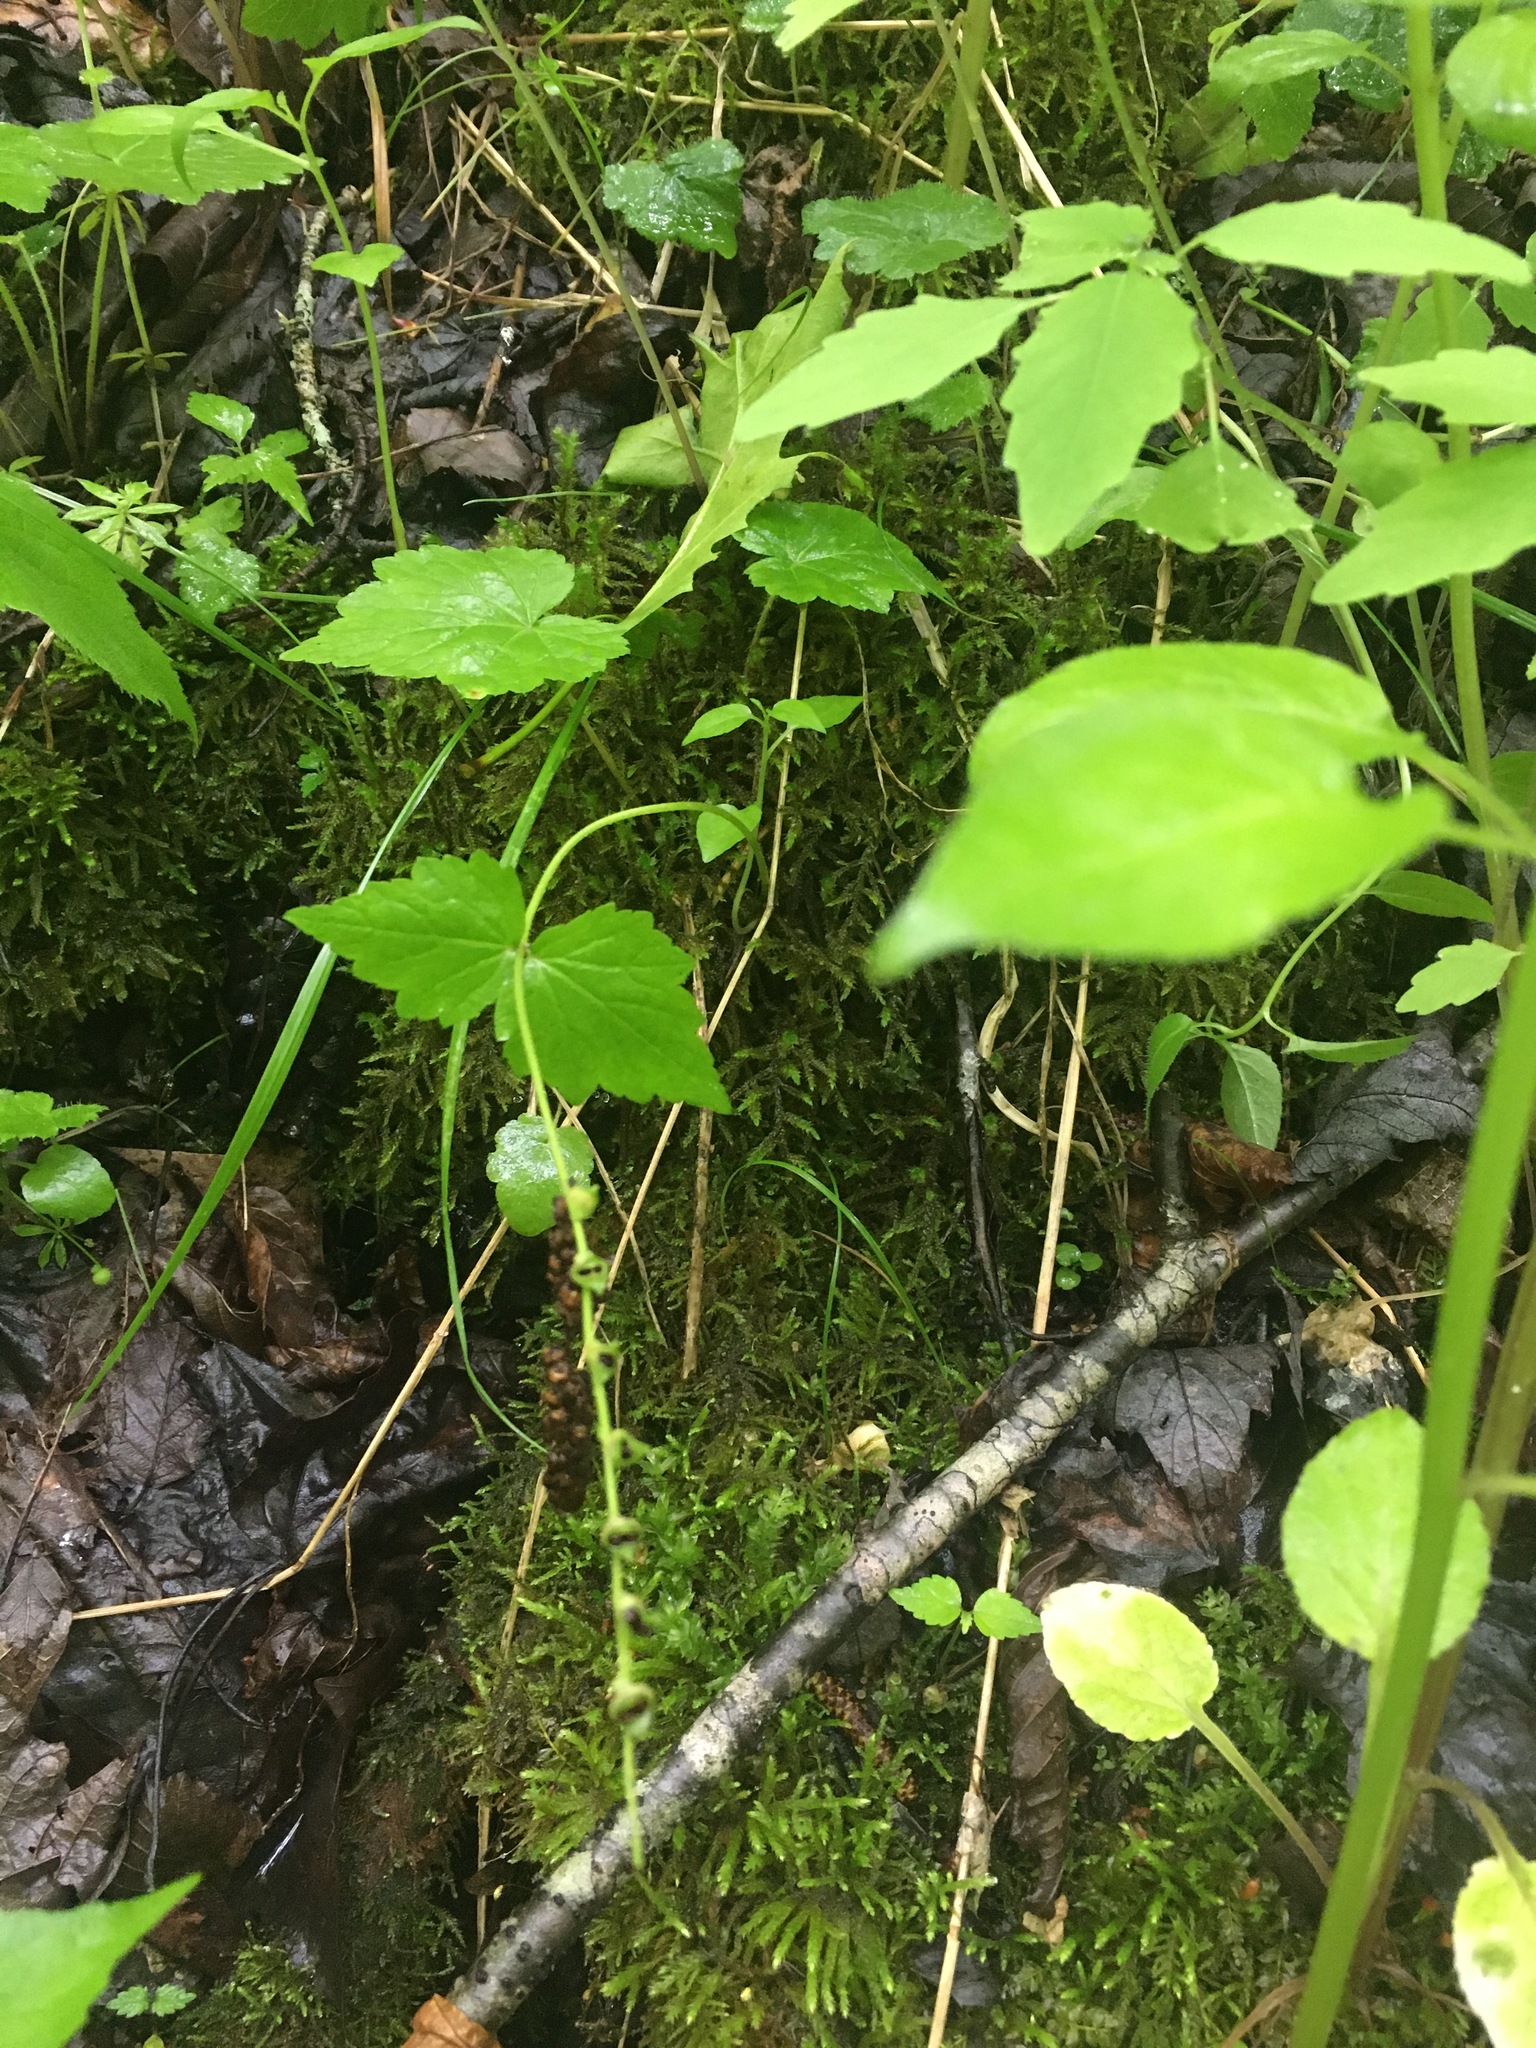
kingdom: Plantae
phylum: Tracheophyta
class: Magnoliopsida
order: Saxifragales
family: Saxifragaceae
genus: Mitella
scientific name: Mitella diphylla
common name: Coolwort
